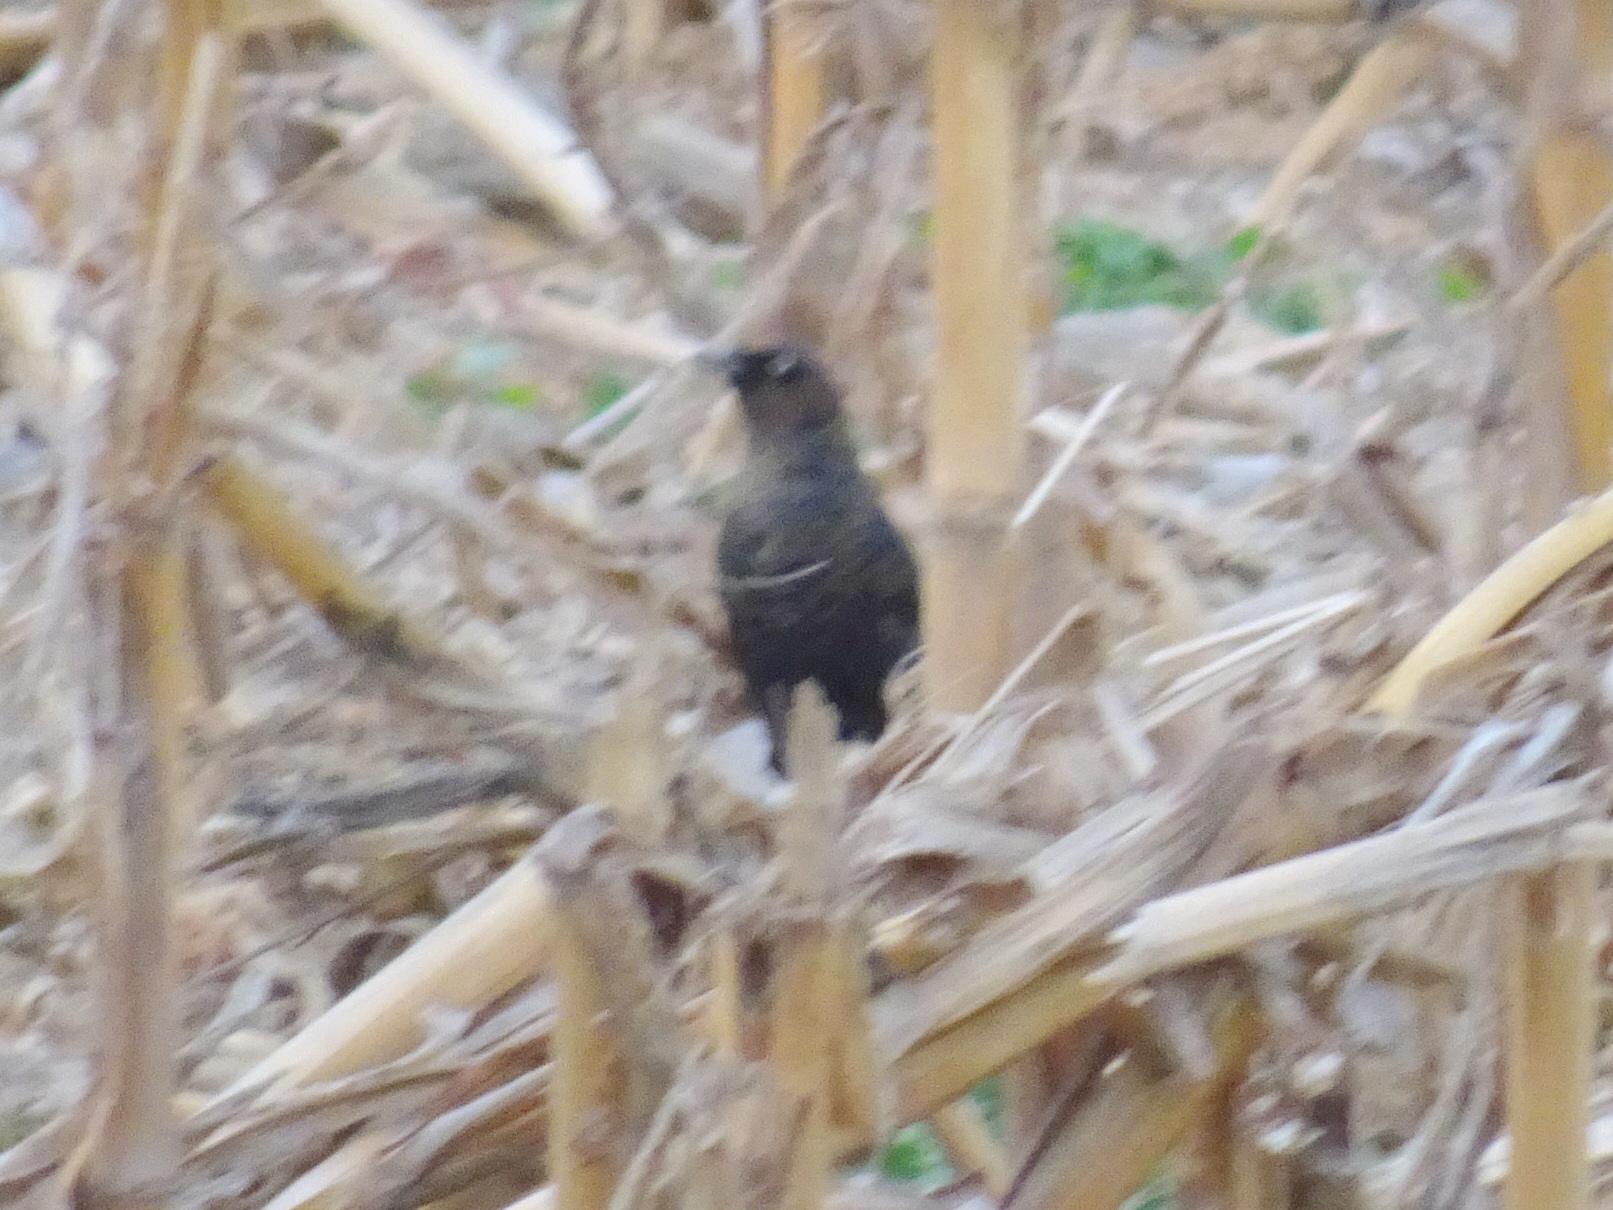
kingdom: Animalia
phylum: Chordata
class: Aves
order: Passeriformes
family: Icteridae
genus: Euphagus
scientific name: Euphagus carolinus
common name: Rusty blackbird
